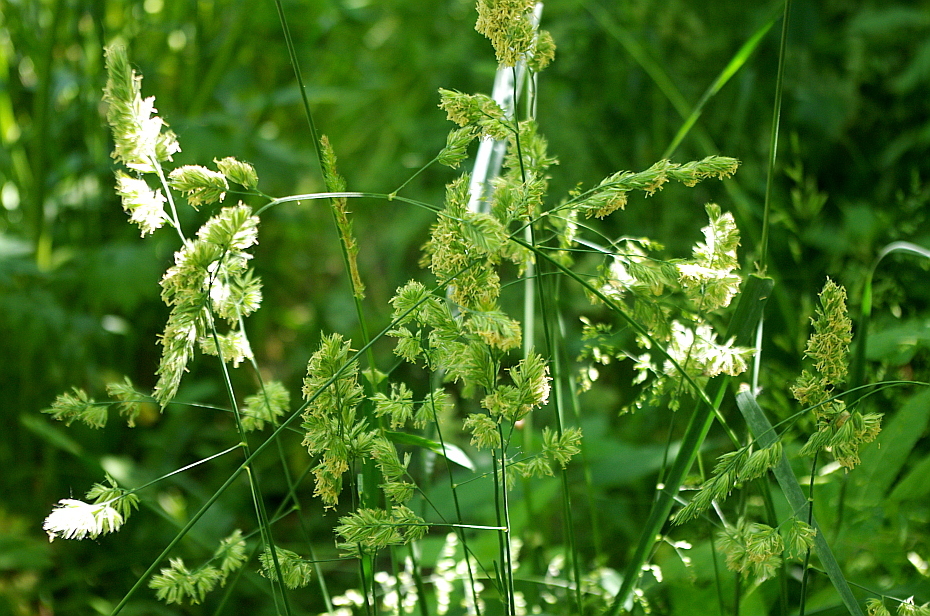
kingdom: Plantae
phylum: Tracheophyta
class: Liliopsida
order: Poales
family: Poaceae
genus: Dactylis
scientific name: Dactylis glomerata
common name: Orchardgrass
